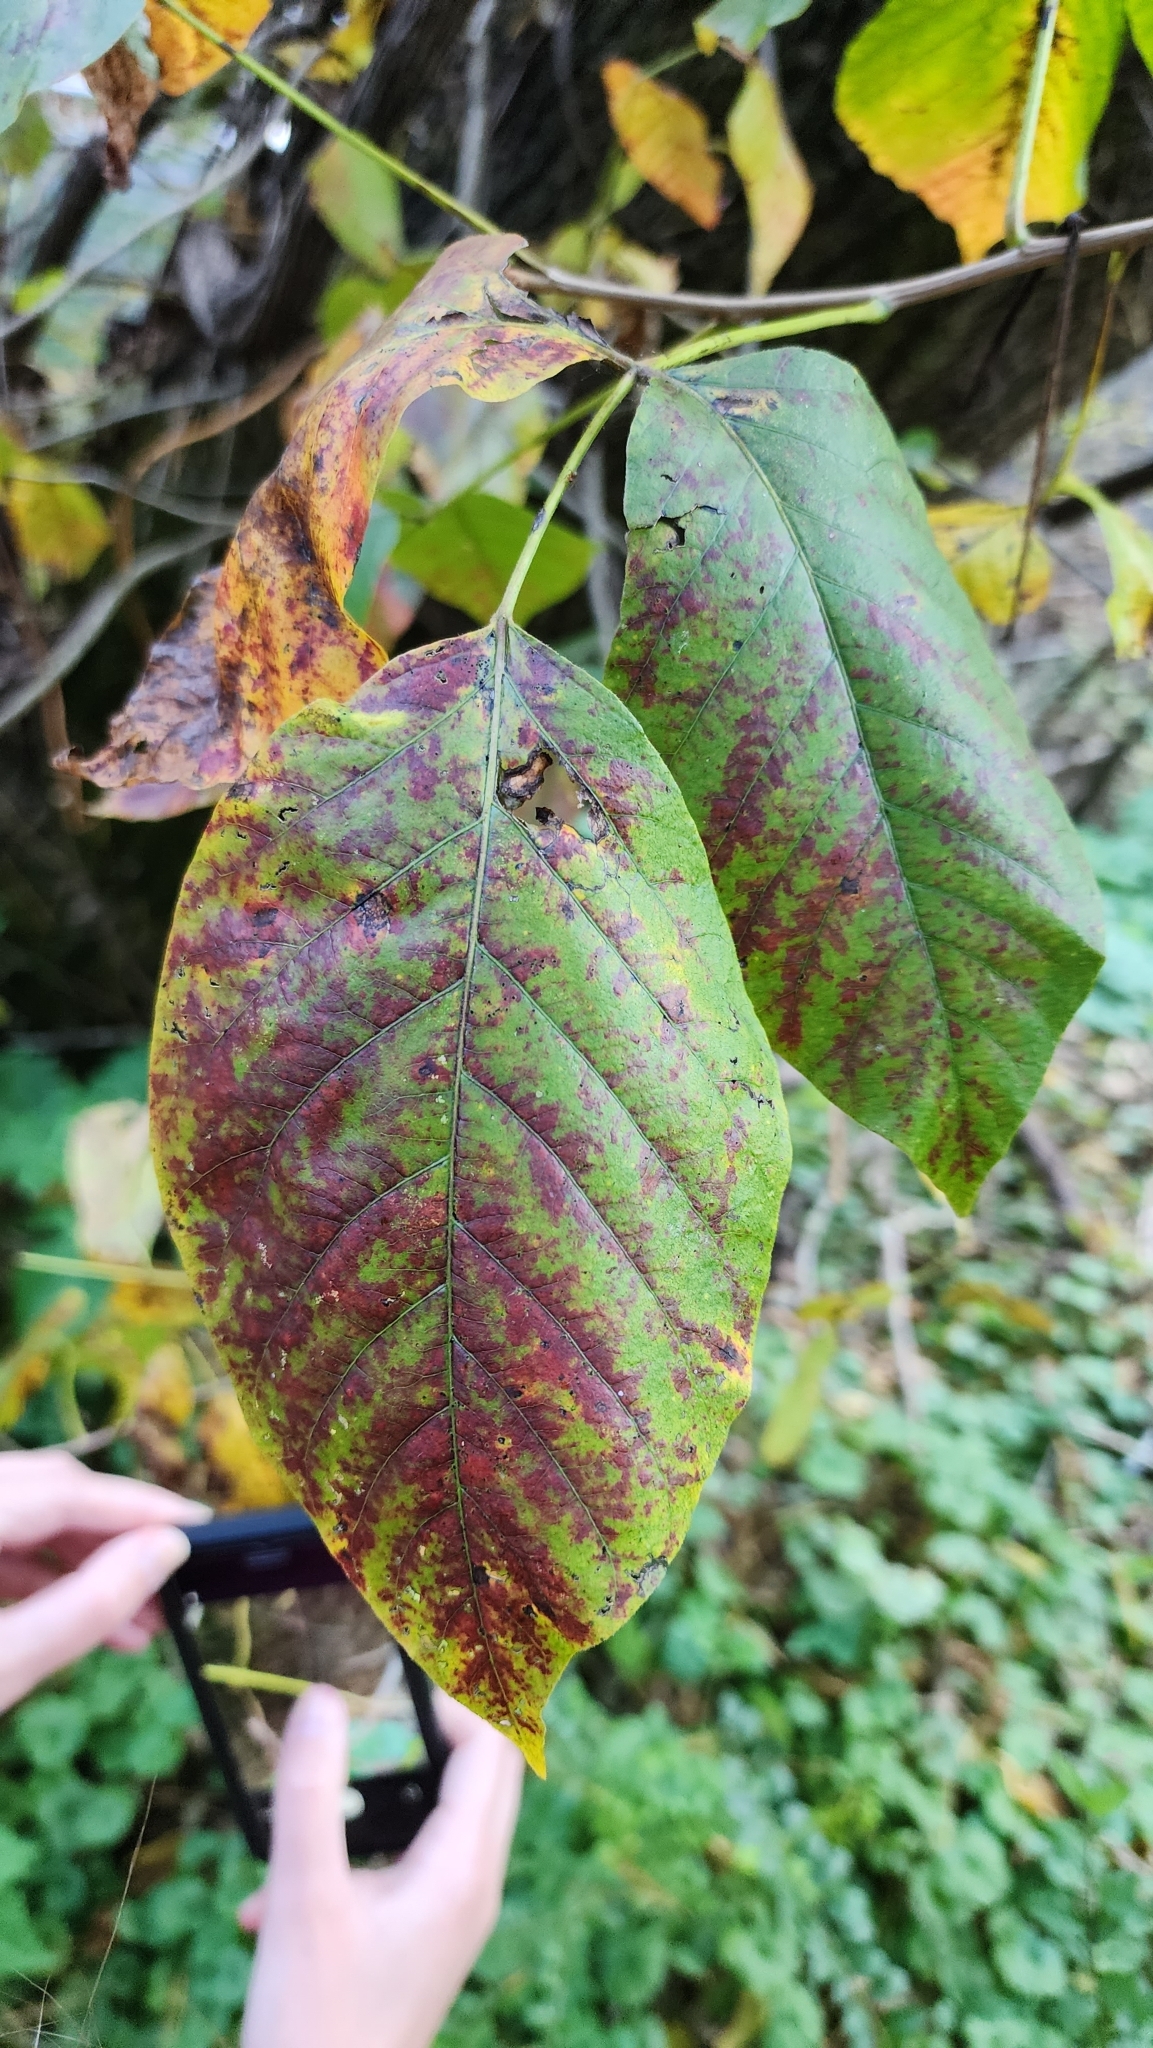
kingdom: Plantae
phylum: Tracheophyta
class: Magnoliopsida
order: Sapindales
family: Anacardiaceae
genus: Toxicodendron
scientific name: Toxicodendron radicans
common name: Poison ivy
